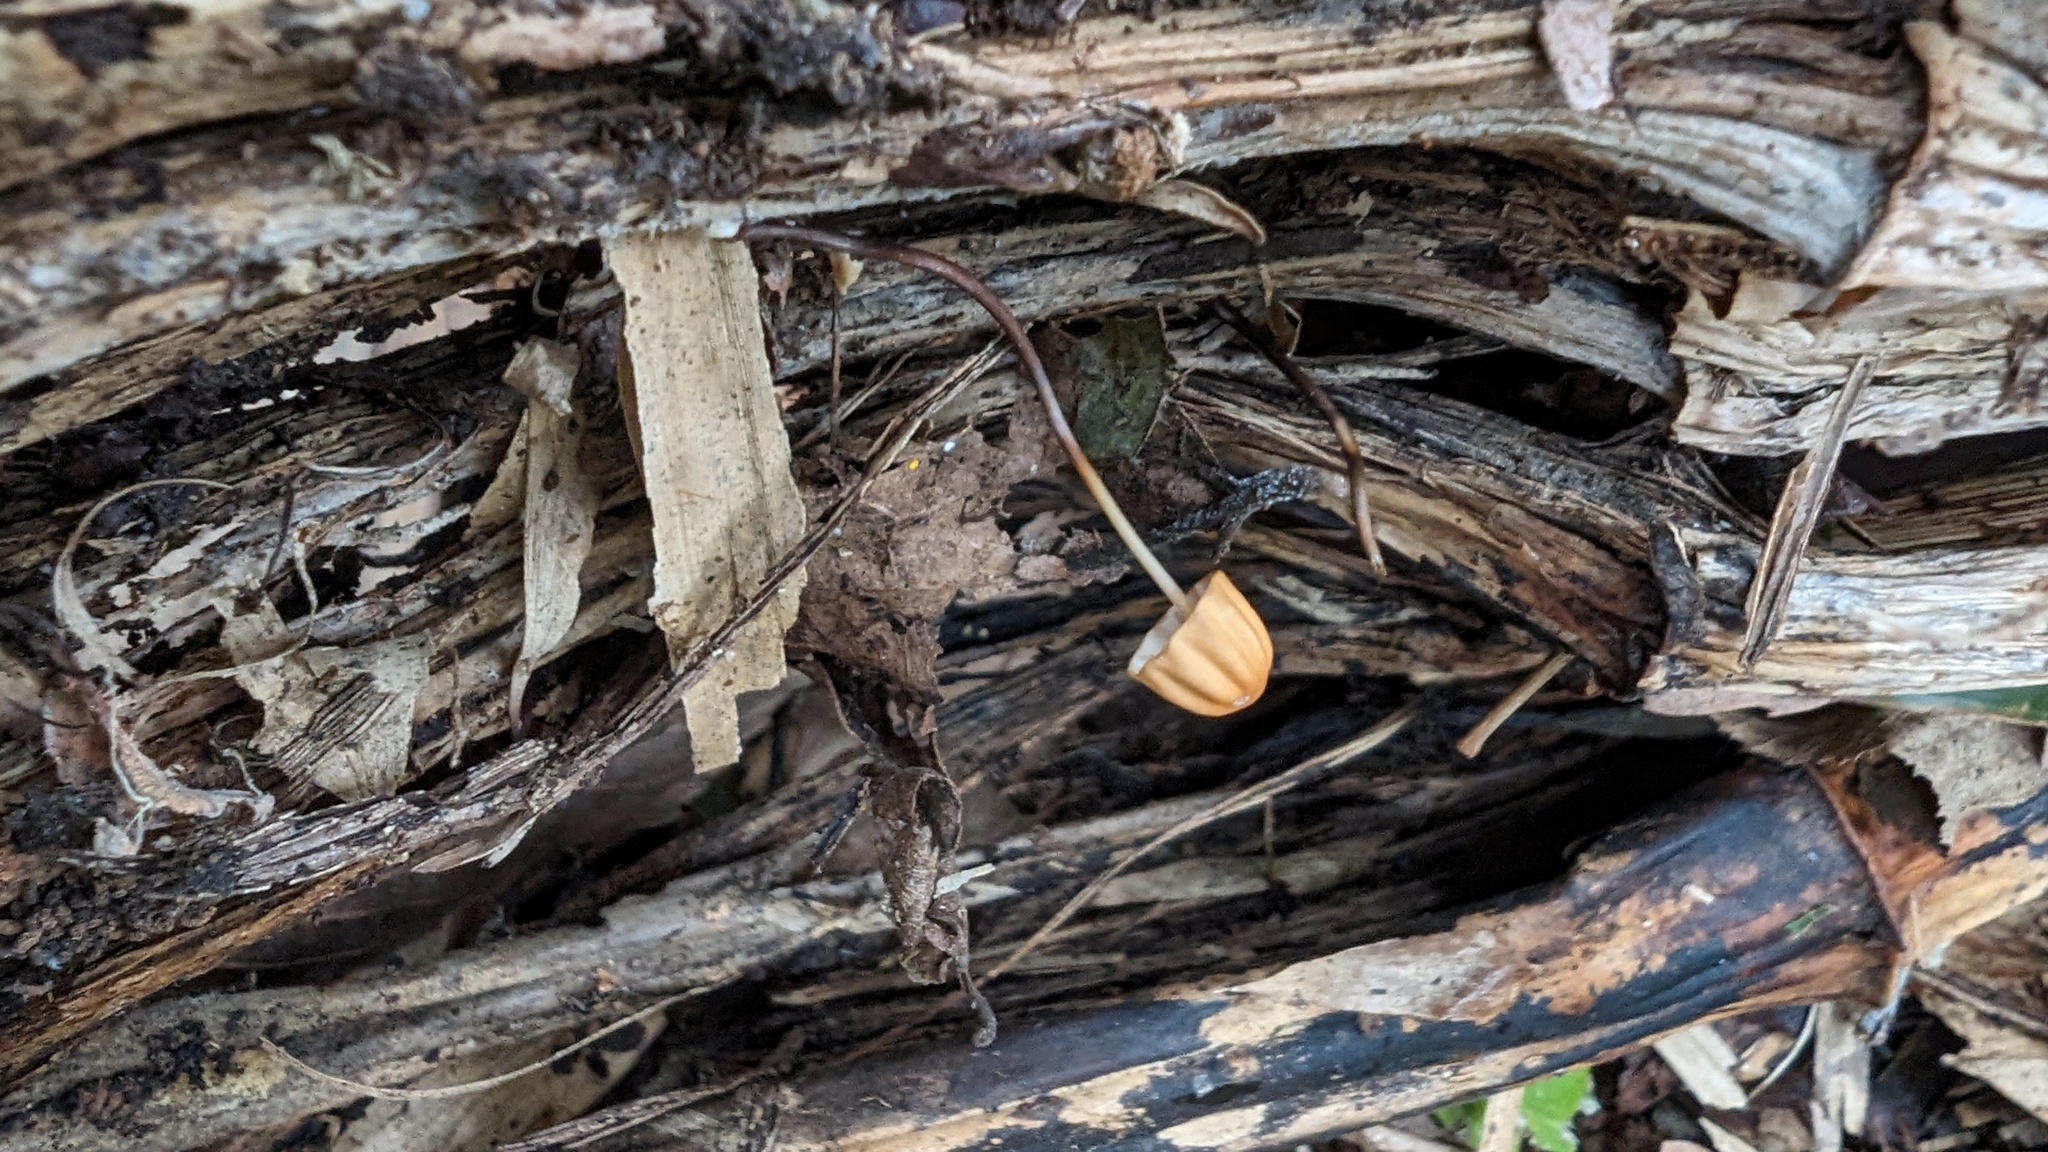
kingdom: Fungi
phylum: Basidiomycota
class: Agaricomycetes
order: Agaricales
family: Marasmiaceae
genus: Marasmius
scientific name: Marasmius siccus
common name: Orange pinwheel
